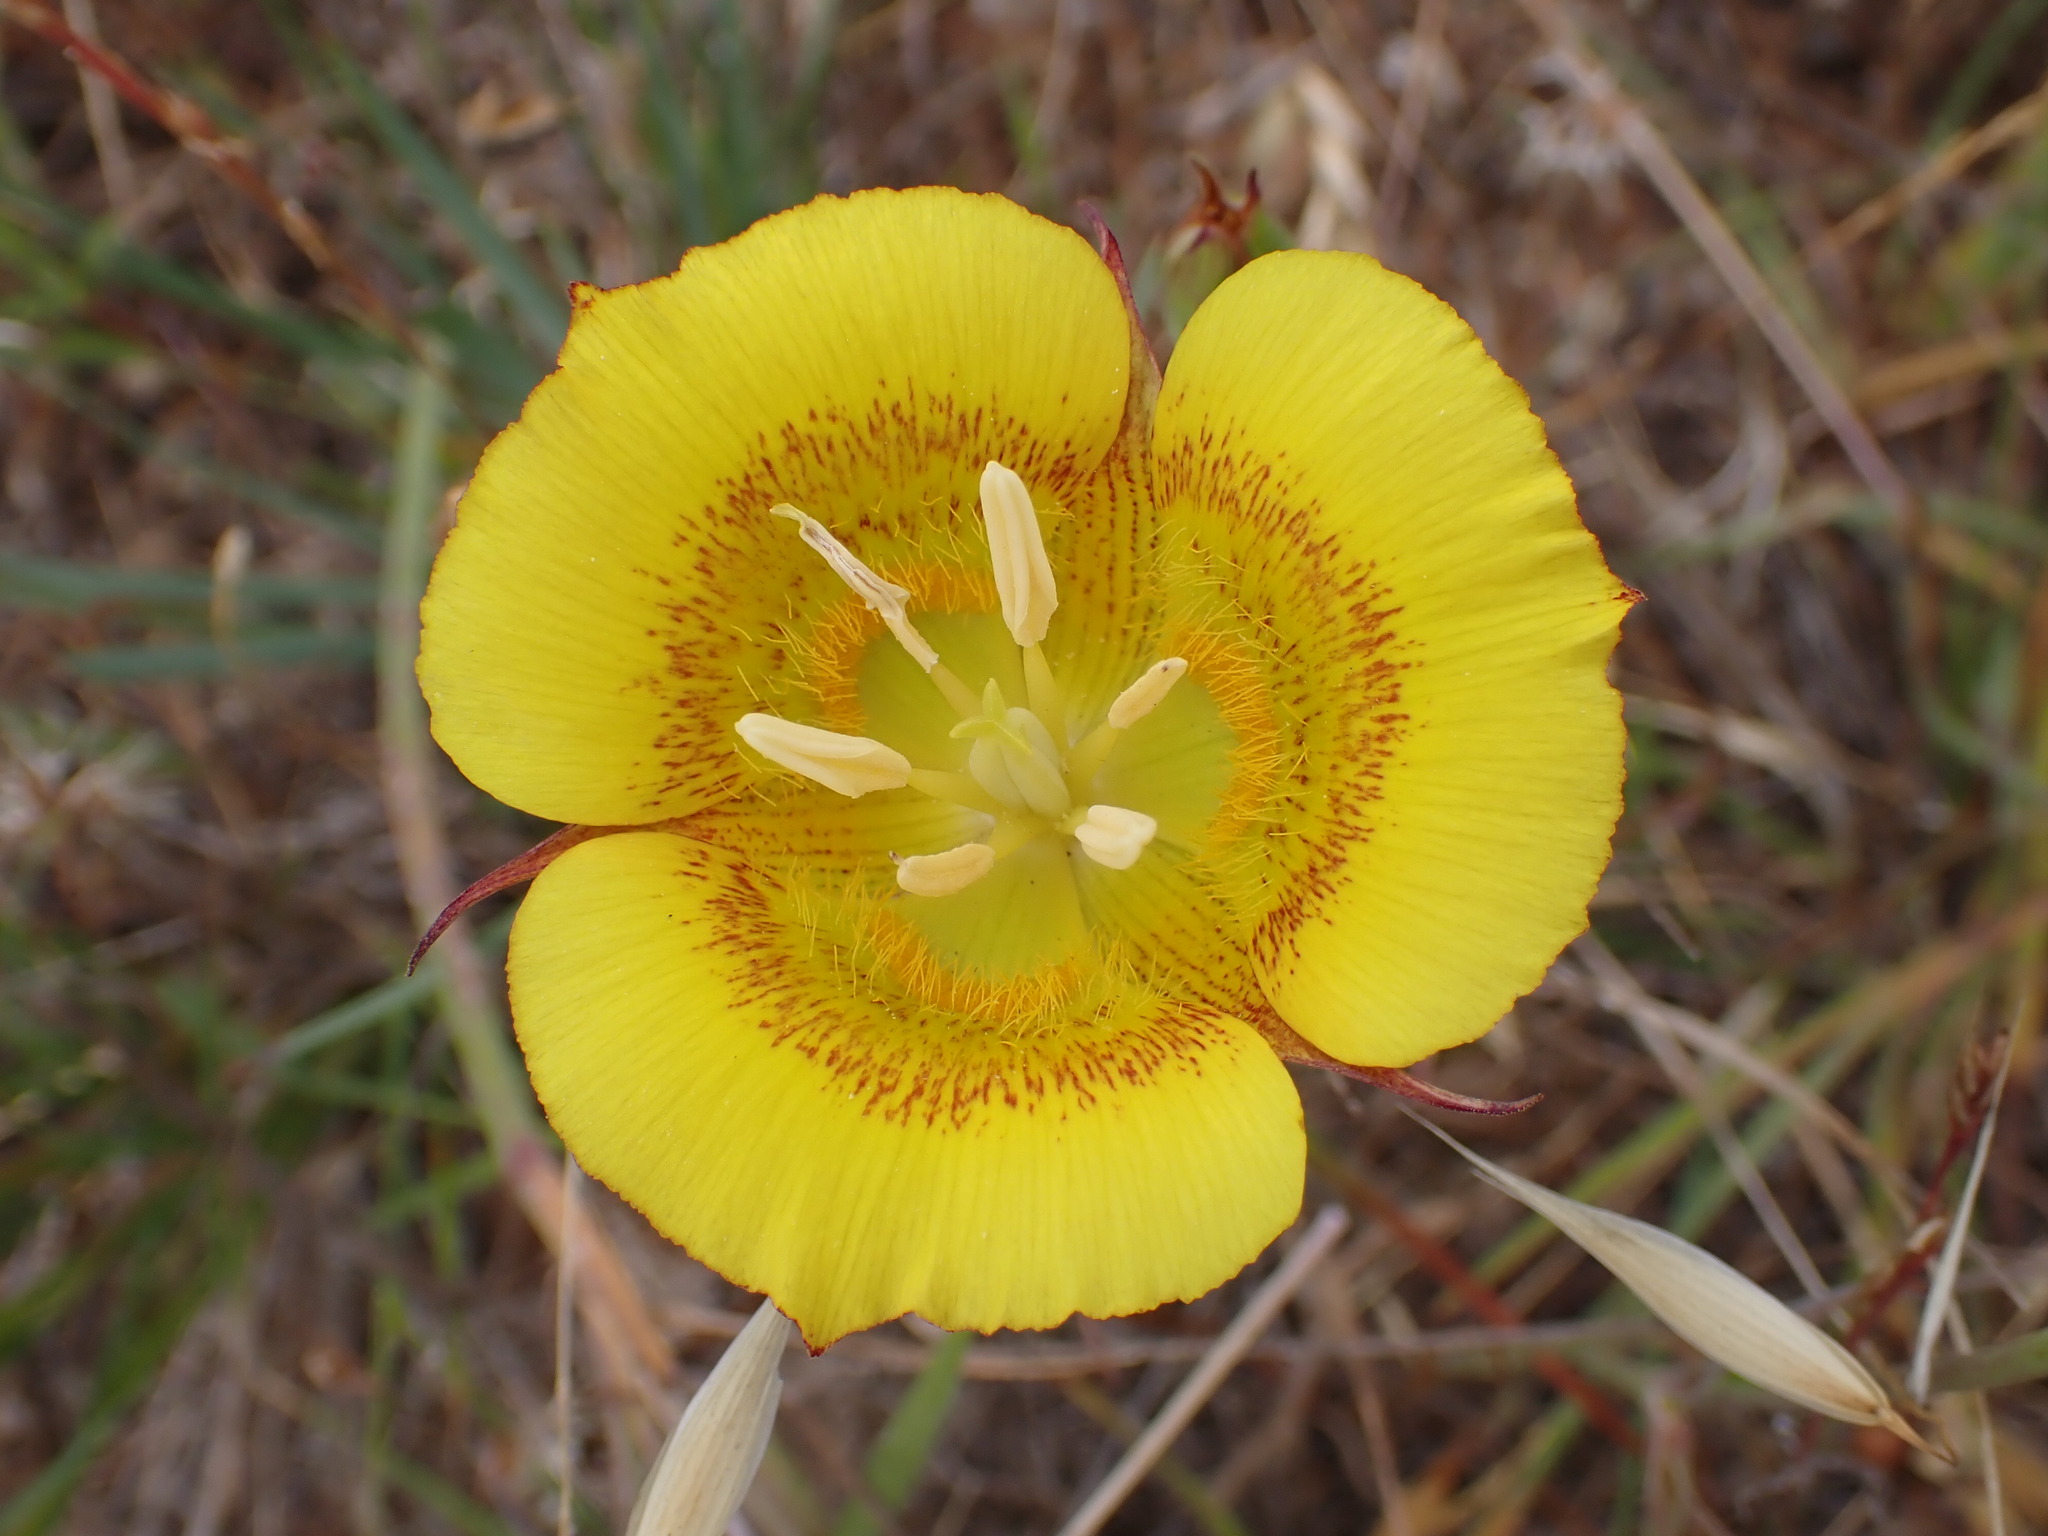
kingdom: Plantae
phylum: Tracheophyta
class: Liliopsida
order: Liliales
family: Liliaceae
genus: Calochortus
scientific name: Calochortus luteus
